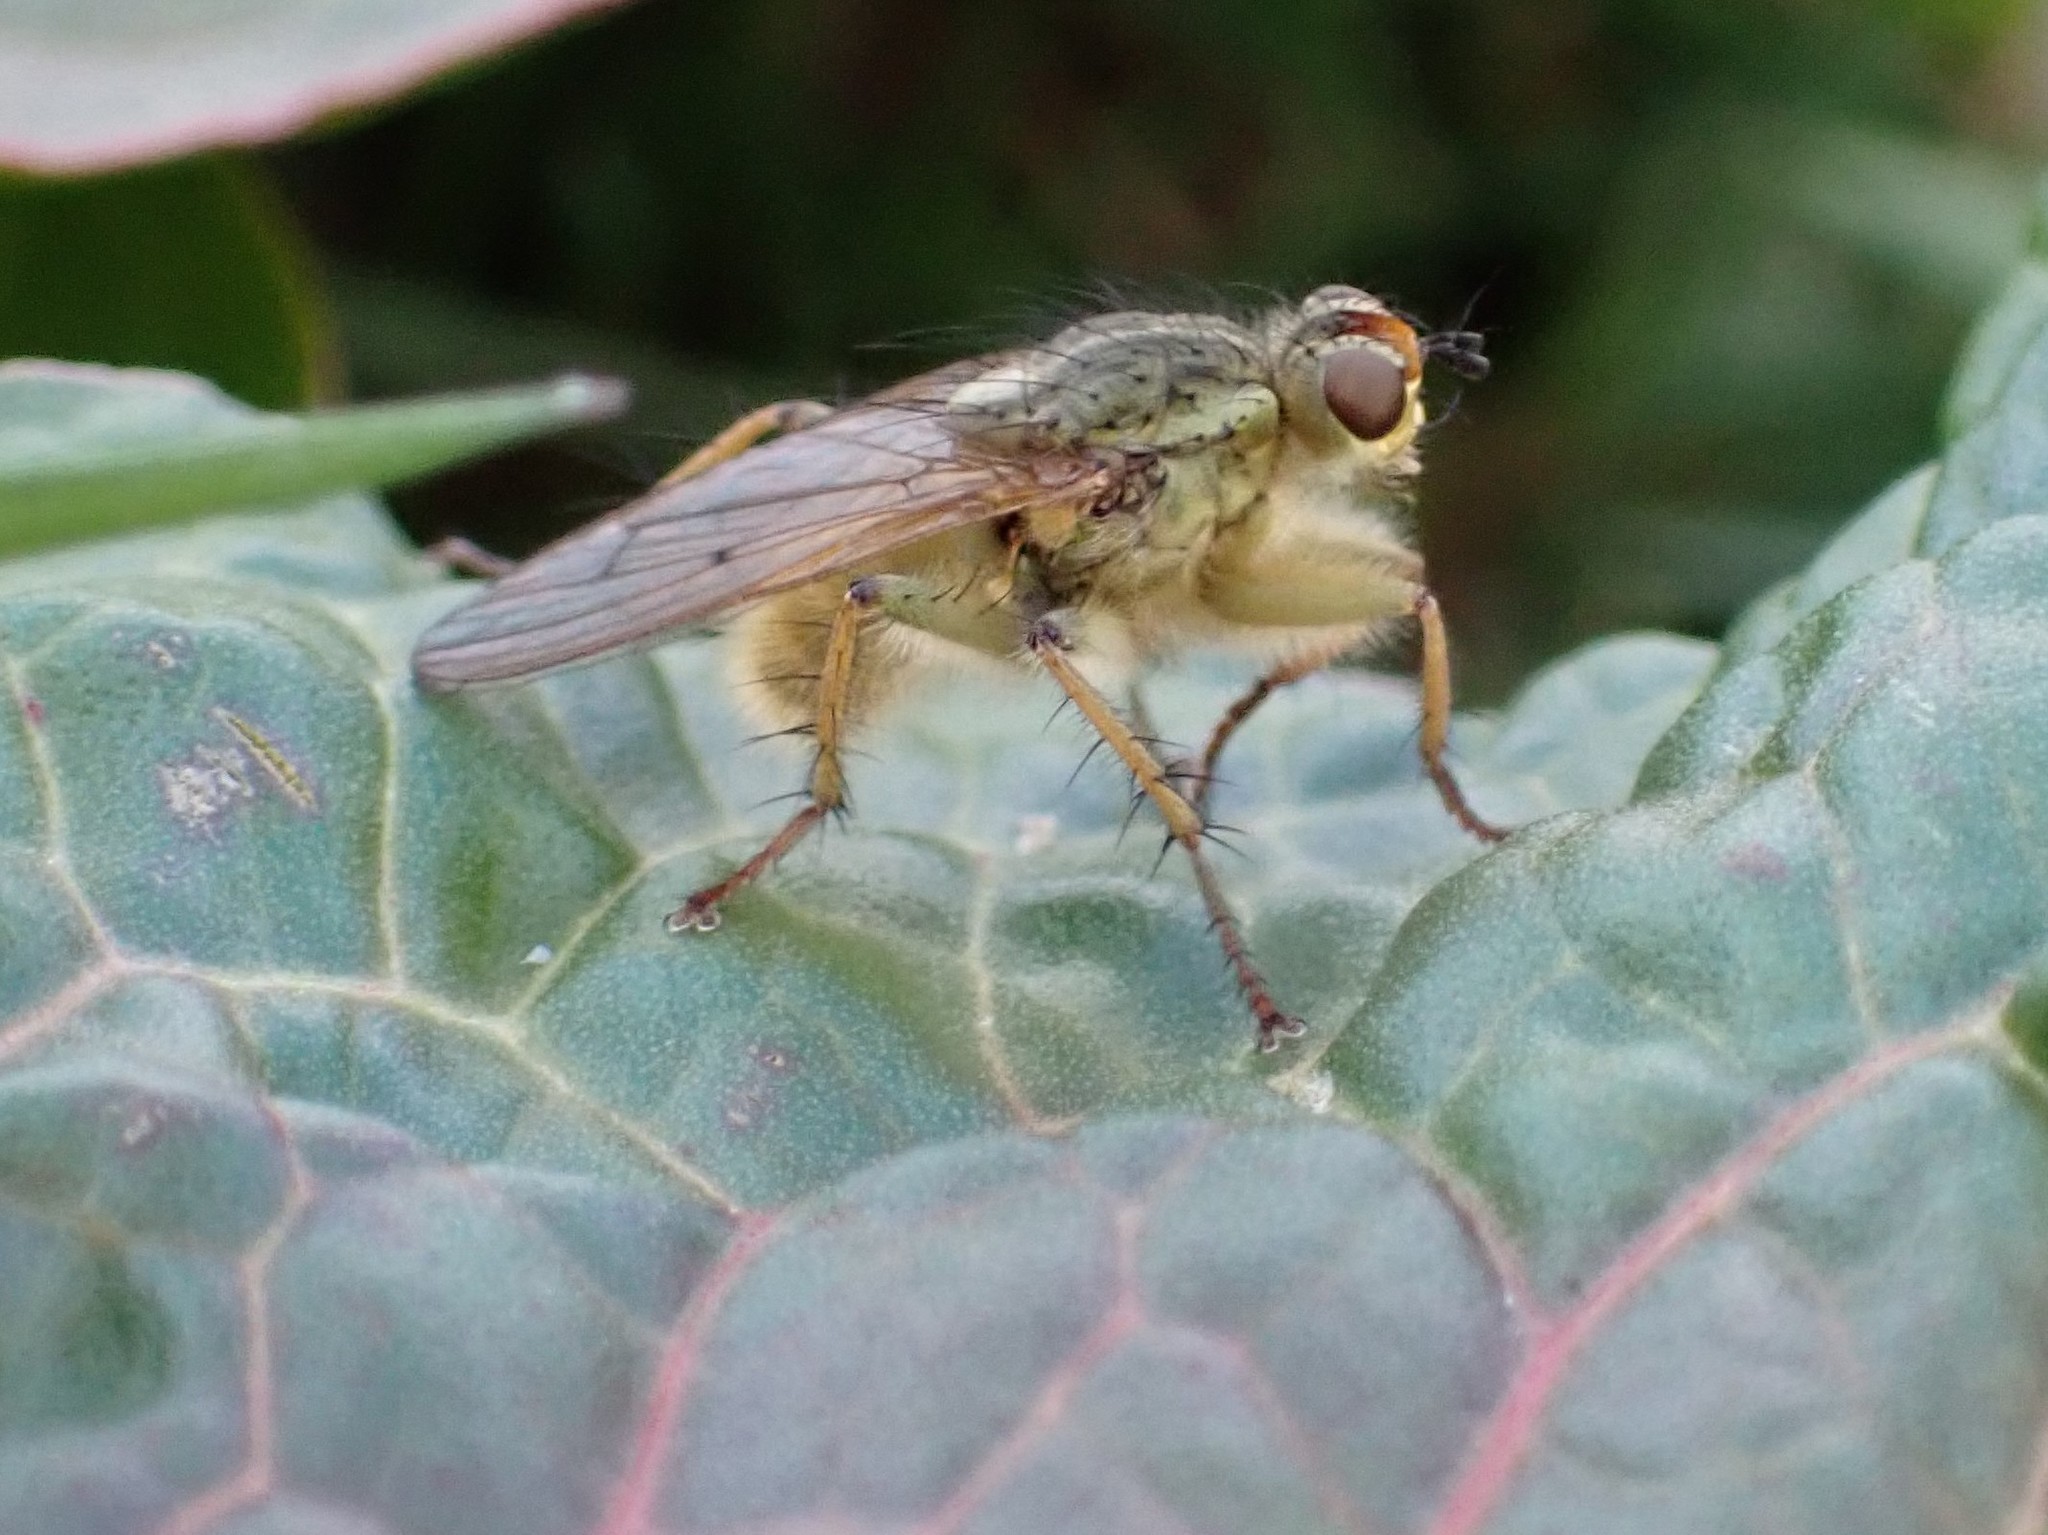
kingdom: Animalia
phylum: Arthropoda
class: Insecta
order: Diptera
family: Scathophagidae
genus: Scathophaga
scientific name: Scathophaga stercoraria
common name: Yellow dung fly
